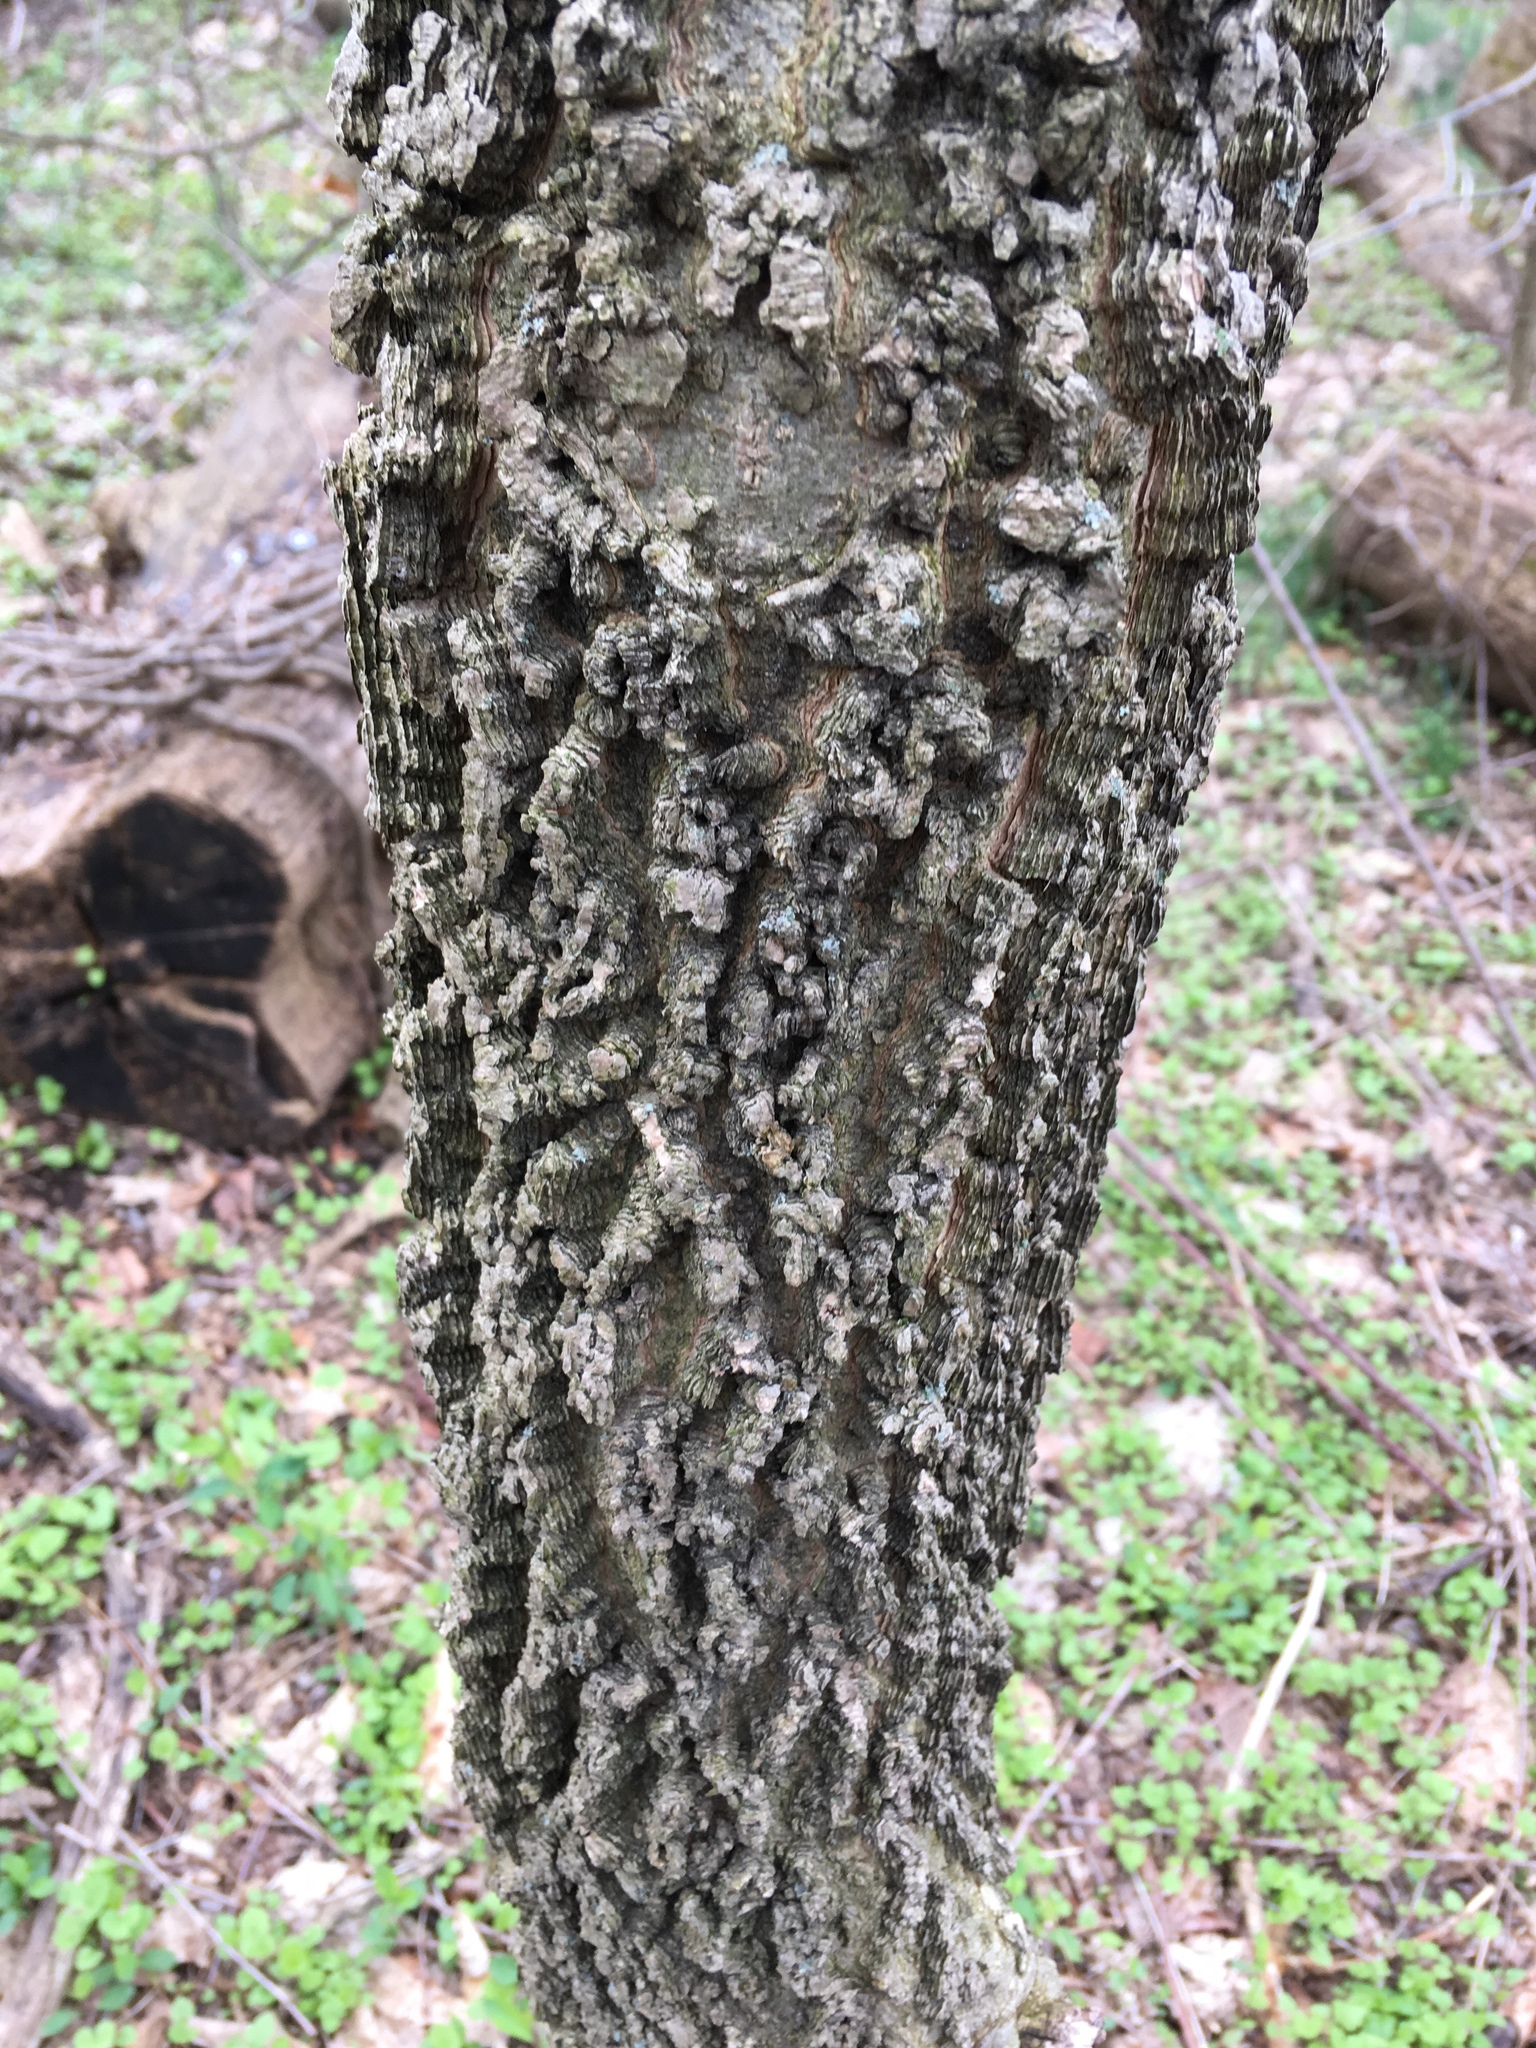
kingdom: Plantae
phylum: Tracheophyta
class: Magnoliopsida
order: Rosales
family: Cannabaceae
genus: Celtis
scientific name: Celtis occidentalis
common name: Common hackberry
